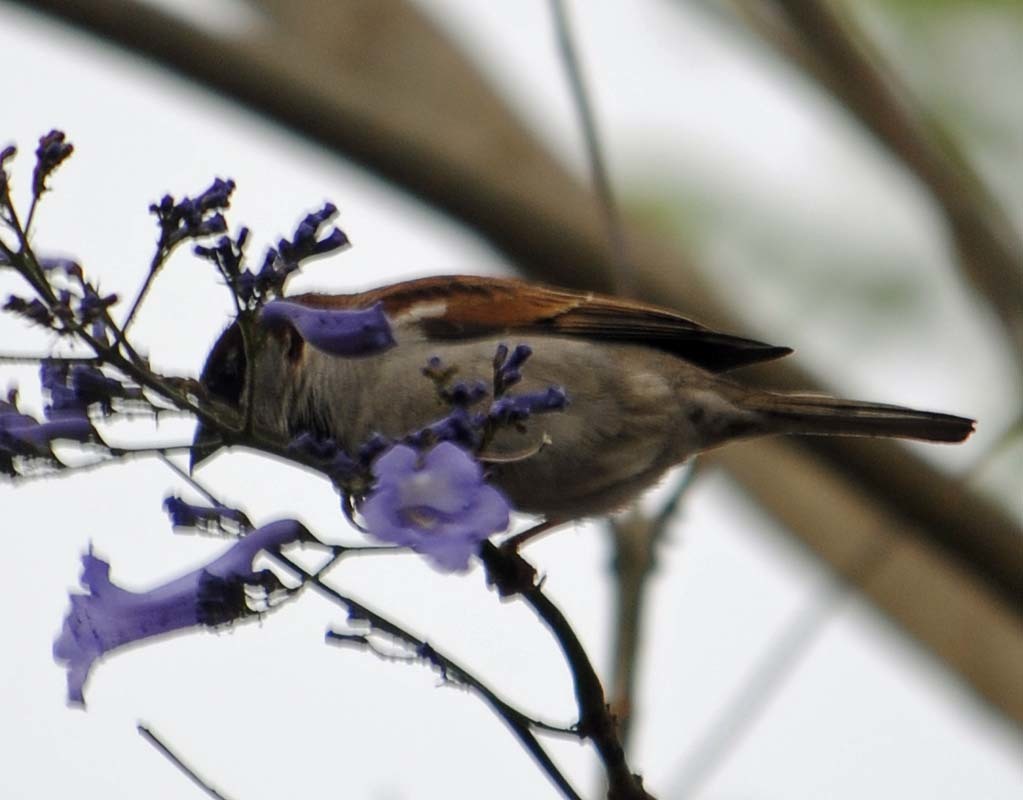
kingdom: Animalia
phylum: Chordata
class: Aves
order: Passeriformes
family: Passeridae
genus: Passer
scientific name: Passer domesticus
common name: House sparrow
